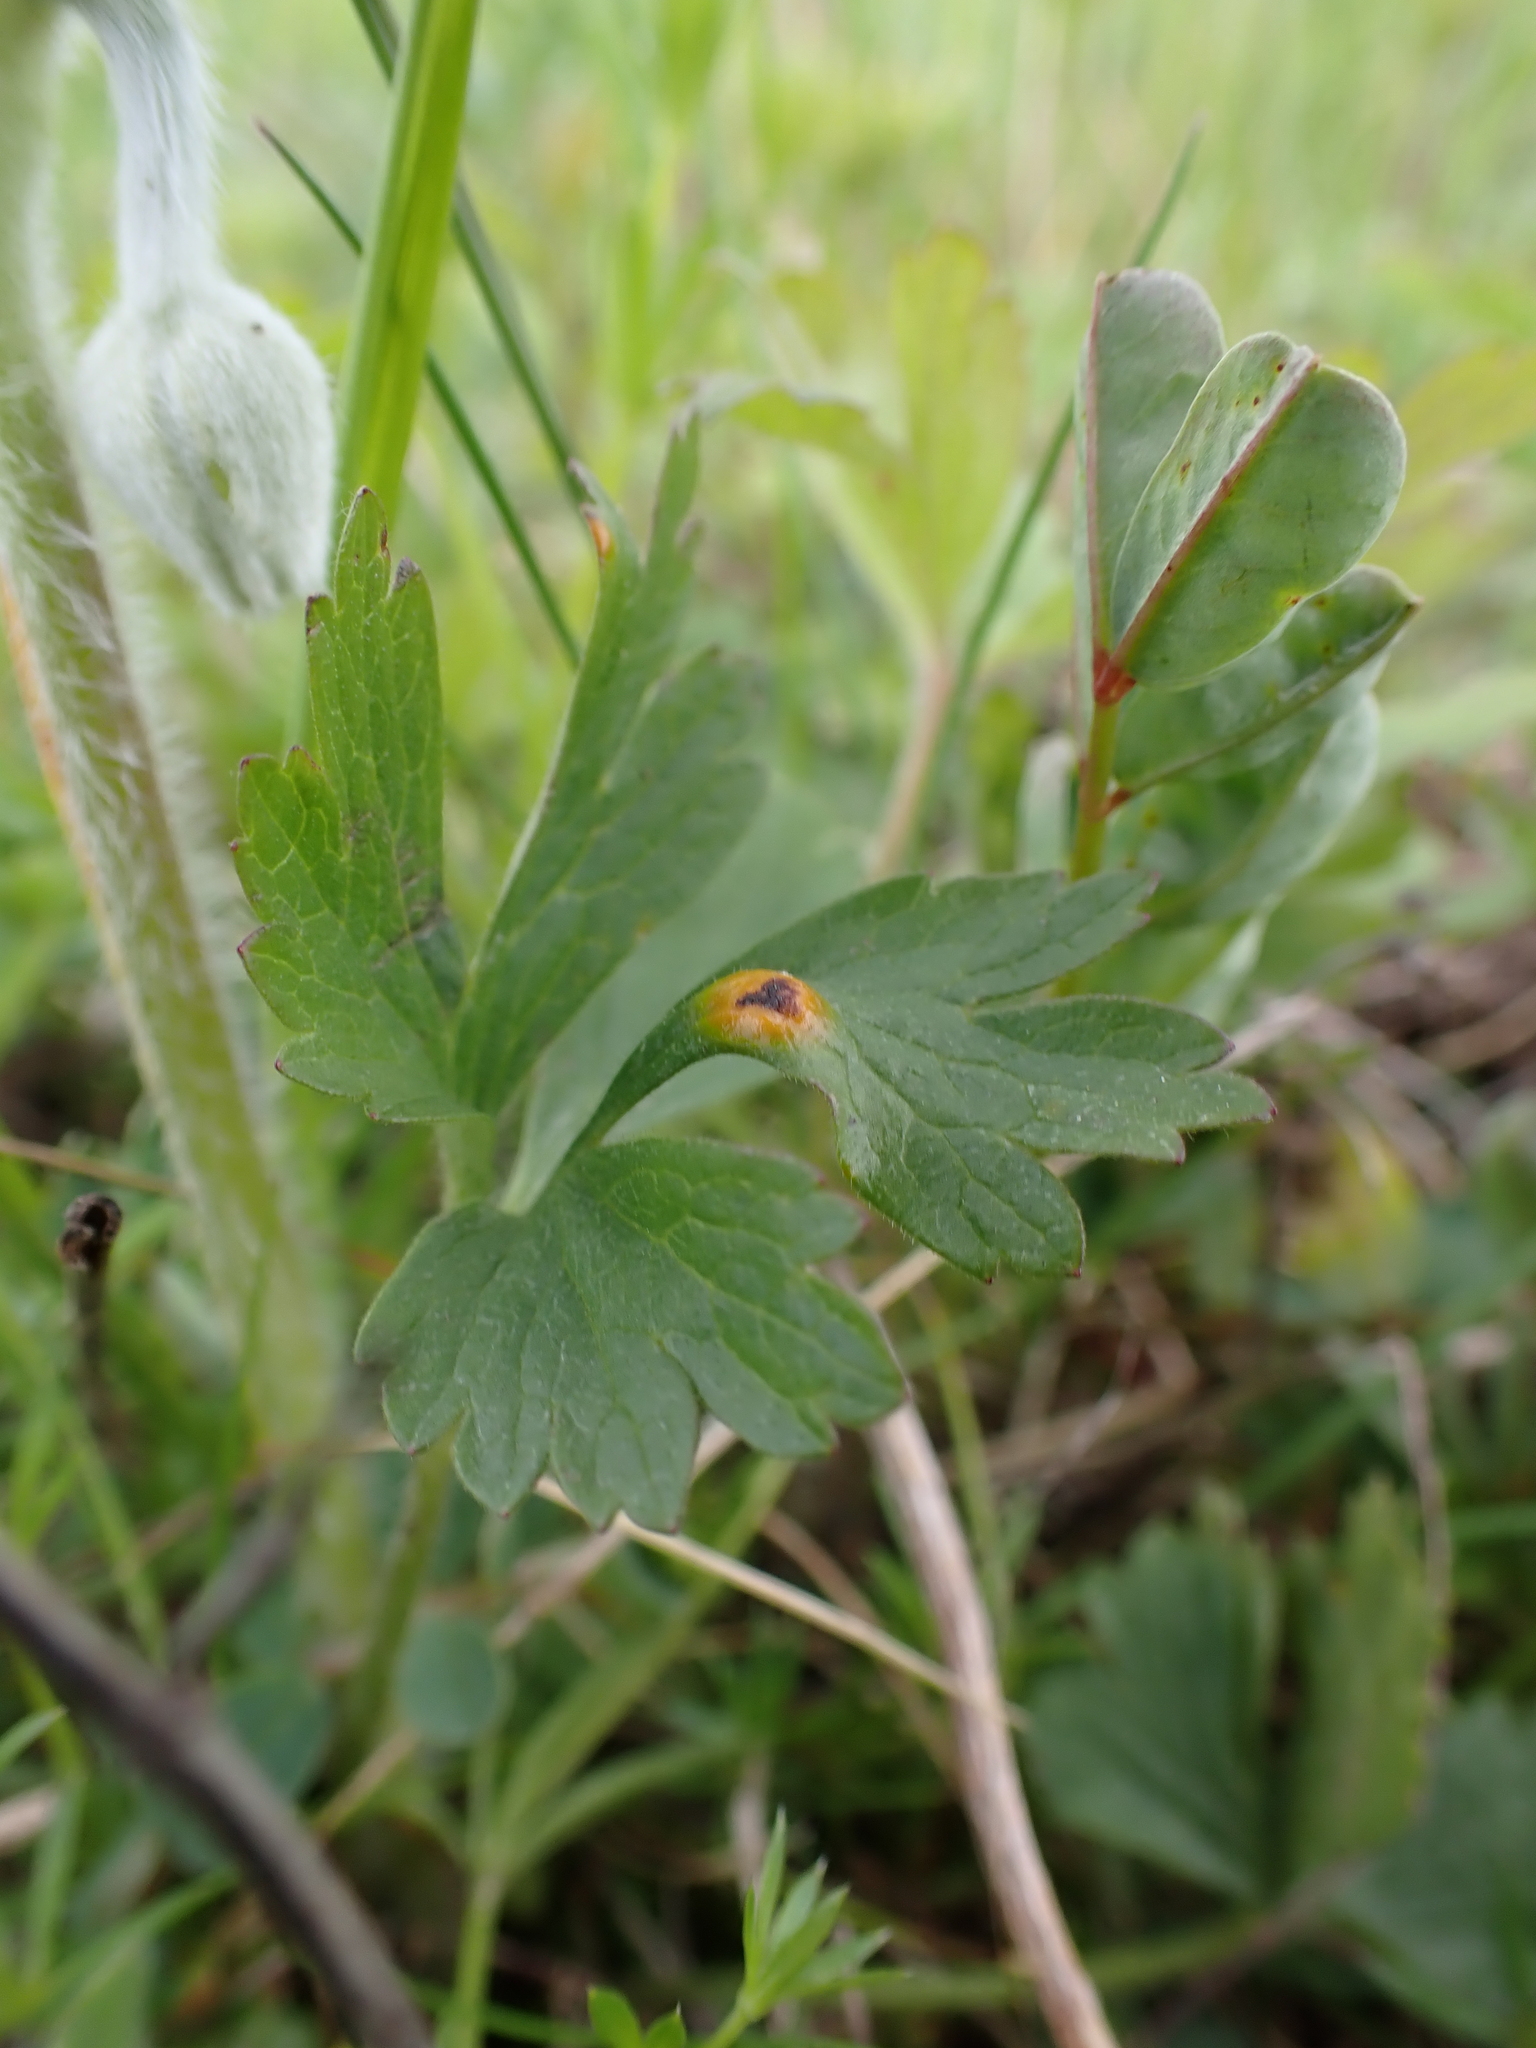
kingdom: Fungi
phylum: Basidiomycota
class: Pucciniomycetes
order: Pucciniales
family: Pucciniaceae
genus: Puccinia
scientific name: Puccinia ustalis
